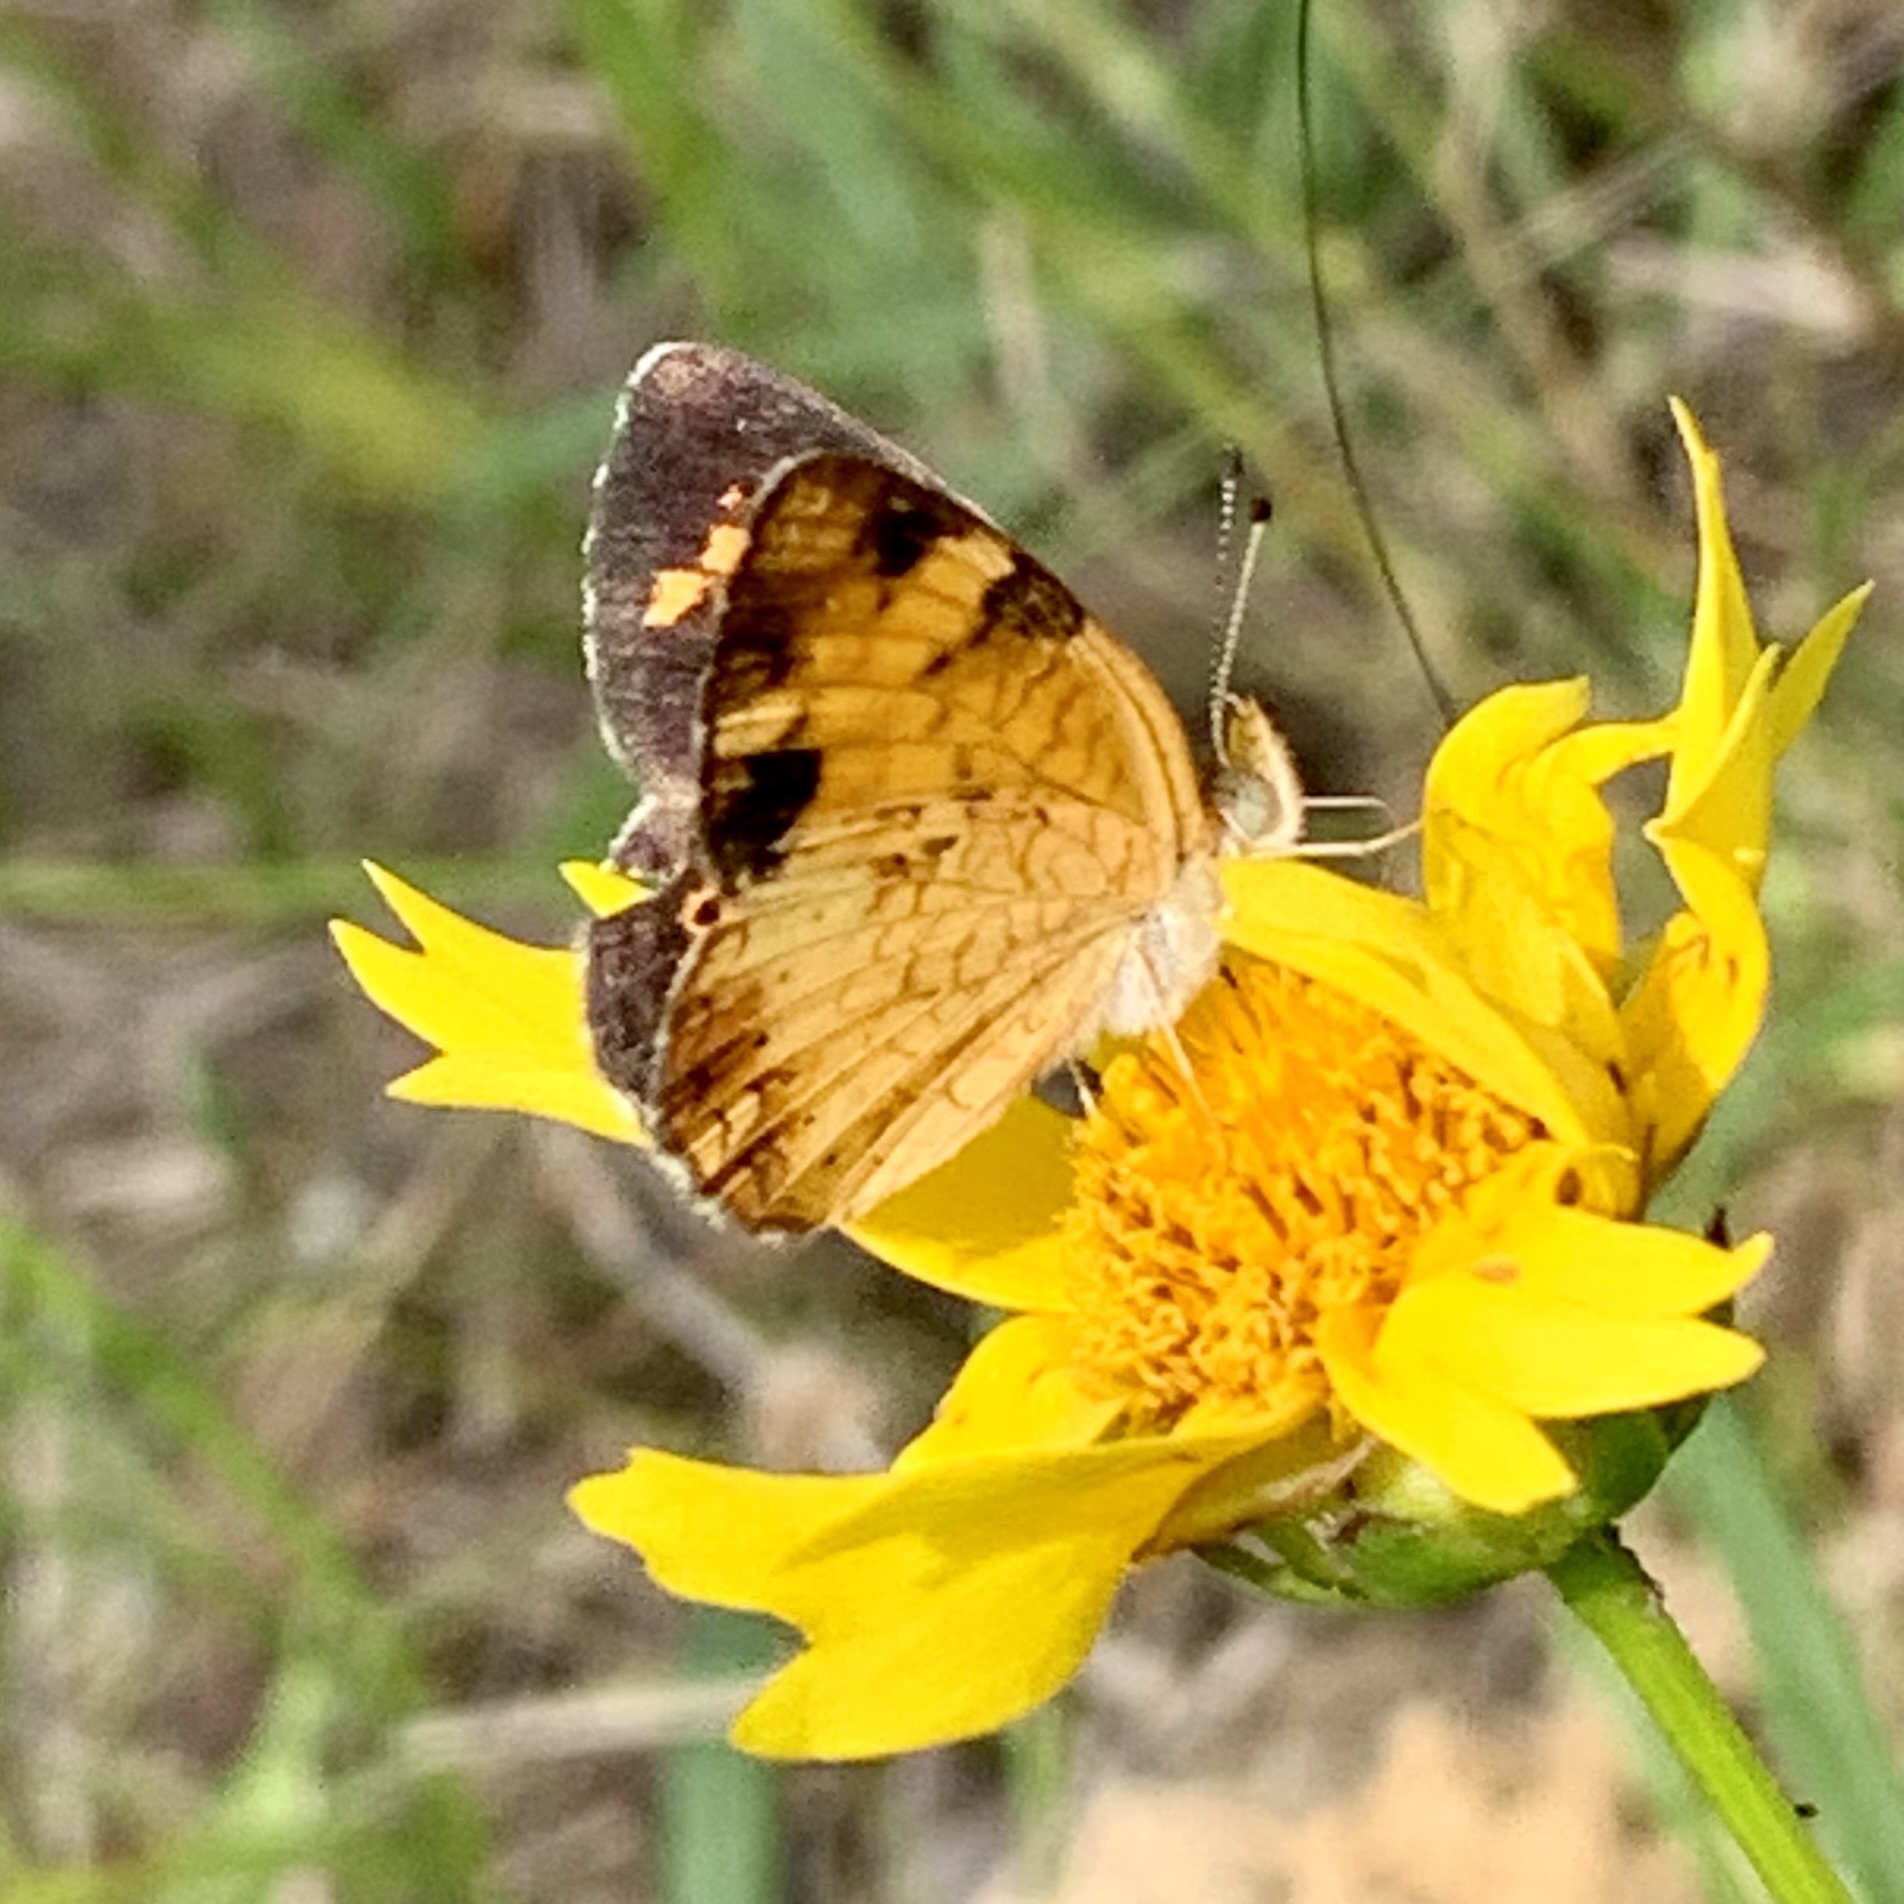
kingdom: Animalia
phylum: Arthropoda
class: Insecta
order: Lepidoptera
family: Nymphalidae
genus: Phyciodes
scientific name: Phyciodes tharos
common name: Pearl crescent
